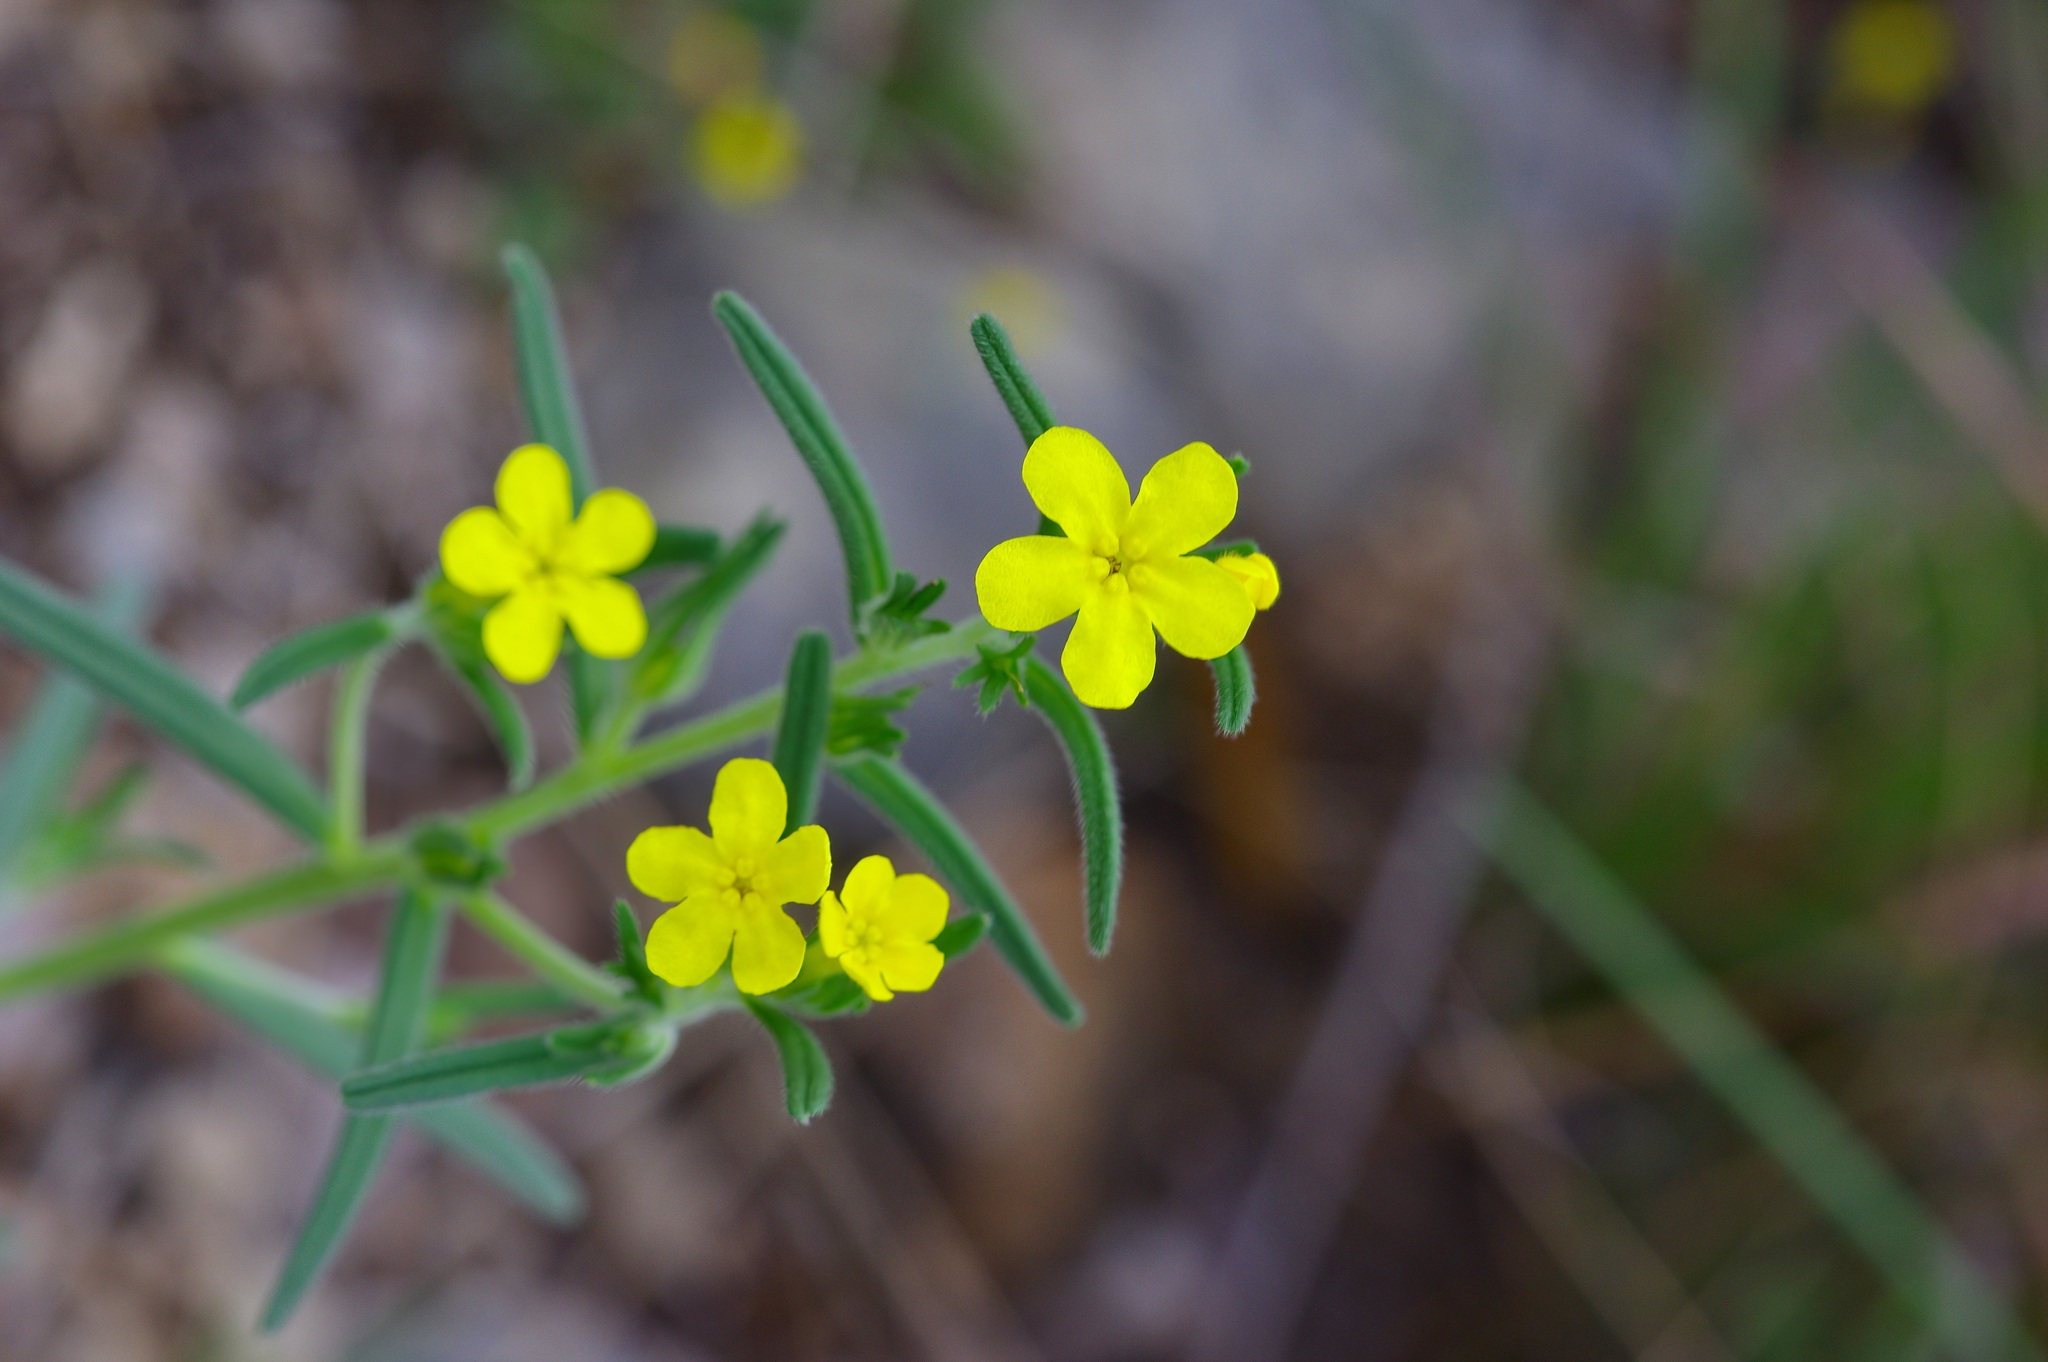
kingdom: Plantae
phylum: Tracheophyta
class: Magnoliopsida
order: Boraginales
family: Boraginaceae
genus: Lithospermum
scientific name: Lithospermum mirabile
